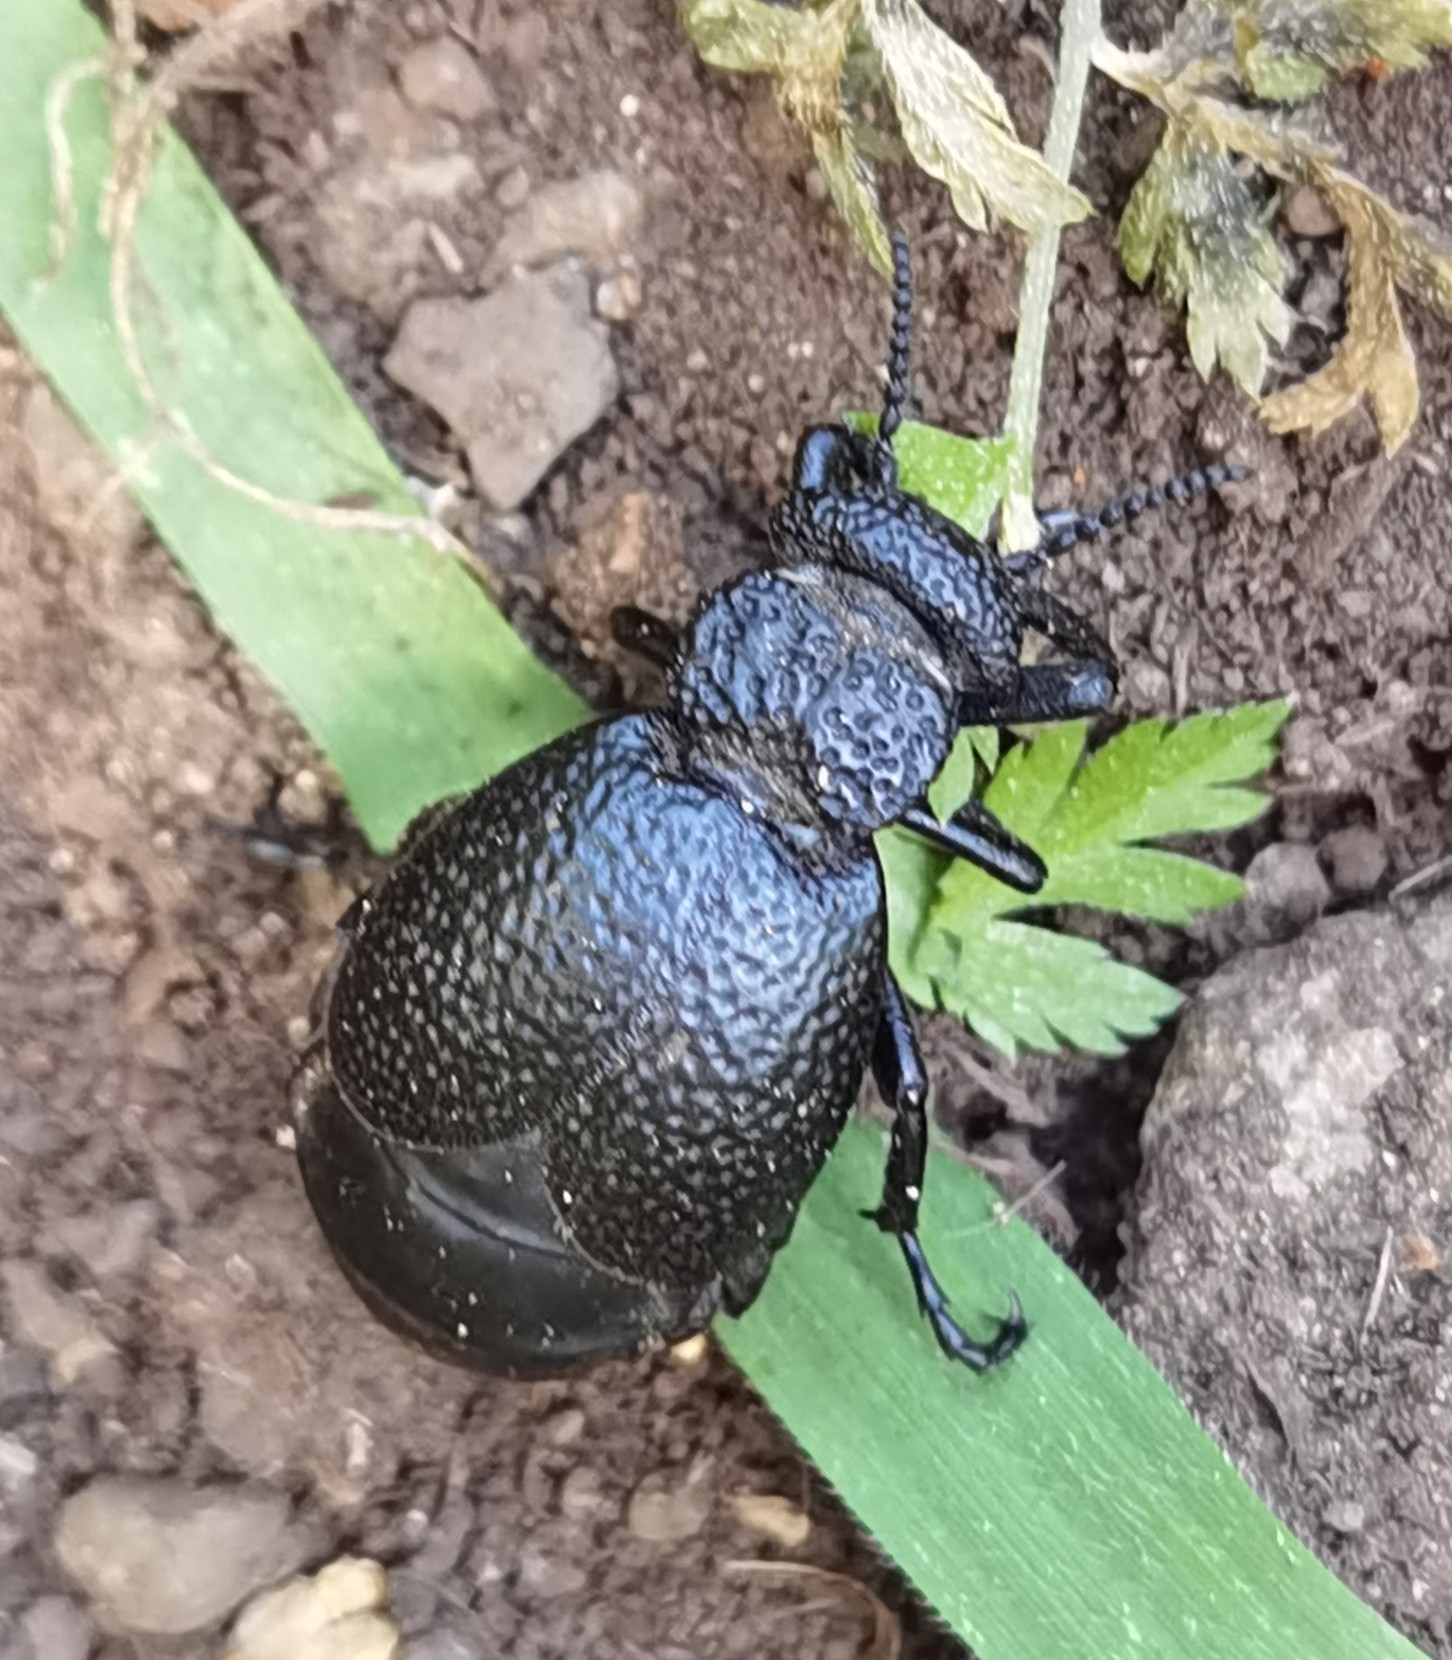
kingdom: Animalia
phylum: Arthropoda
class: Insecta
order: Coleoptera
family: Meloidae
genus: Meloe
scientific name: Meloe tuccius
